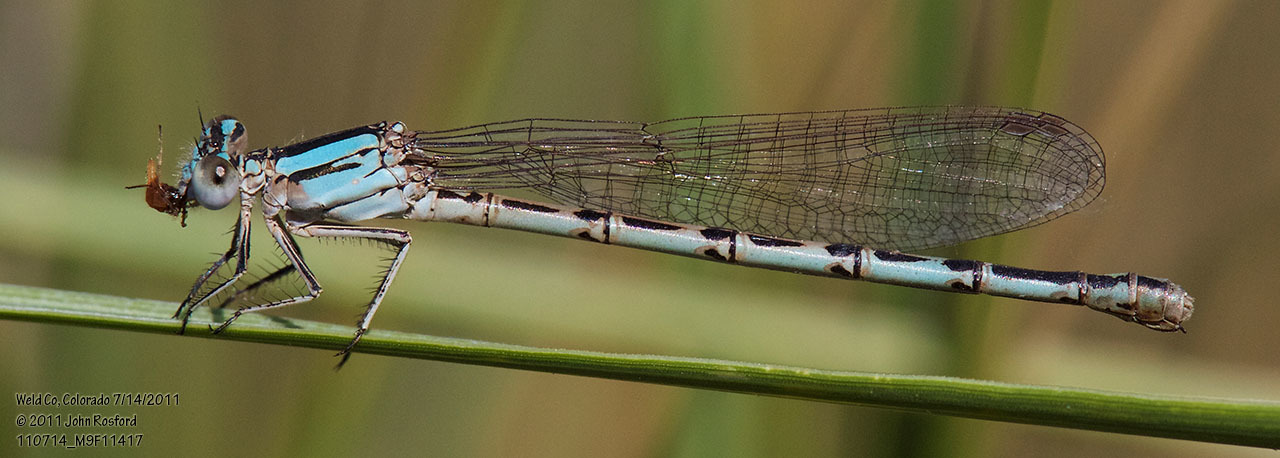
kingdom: Animalia
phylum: Arthropoda
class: Insecta
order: Odonata
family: Coenagrionidae
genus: Argia
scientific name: Argia alberta
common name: Paiute dancer
